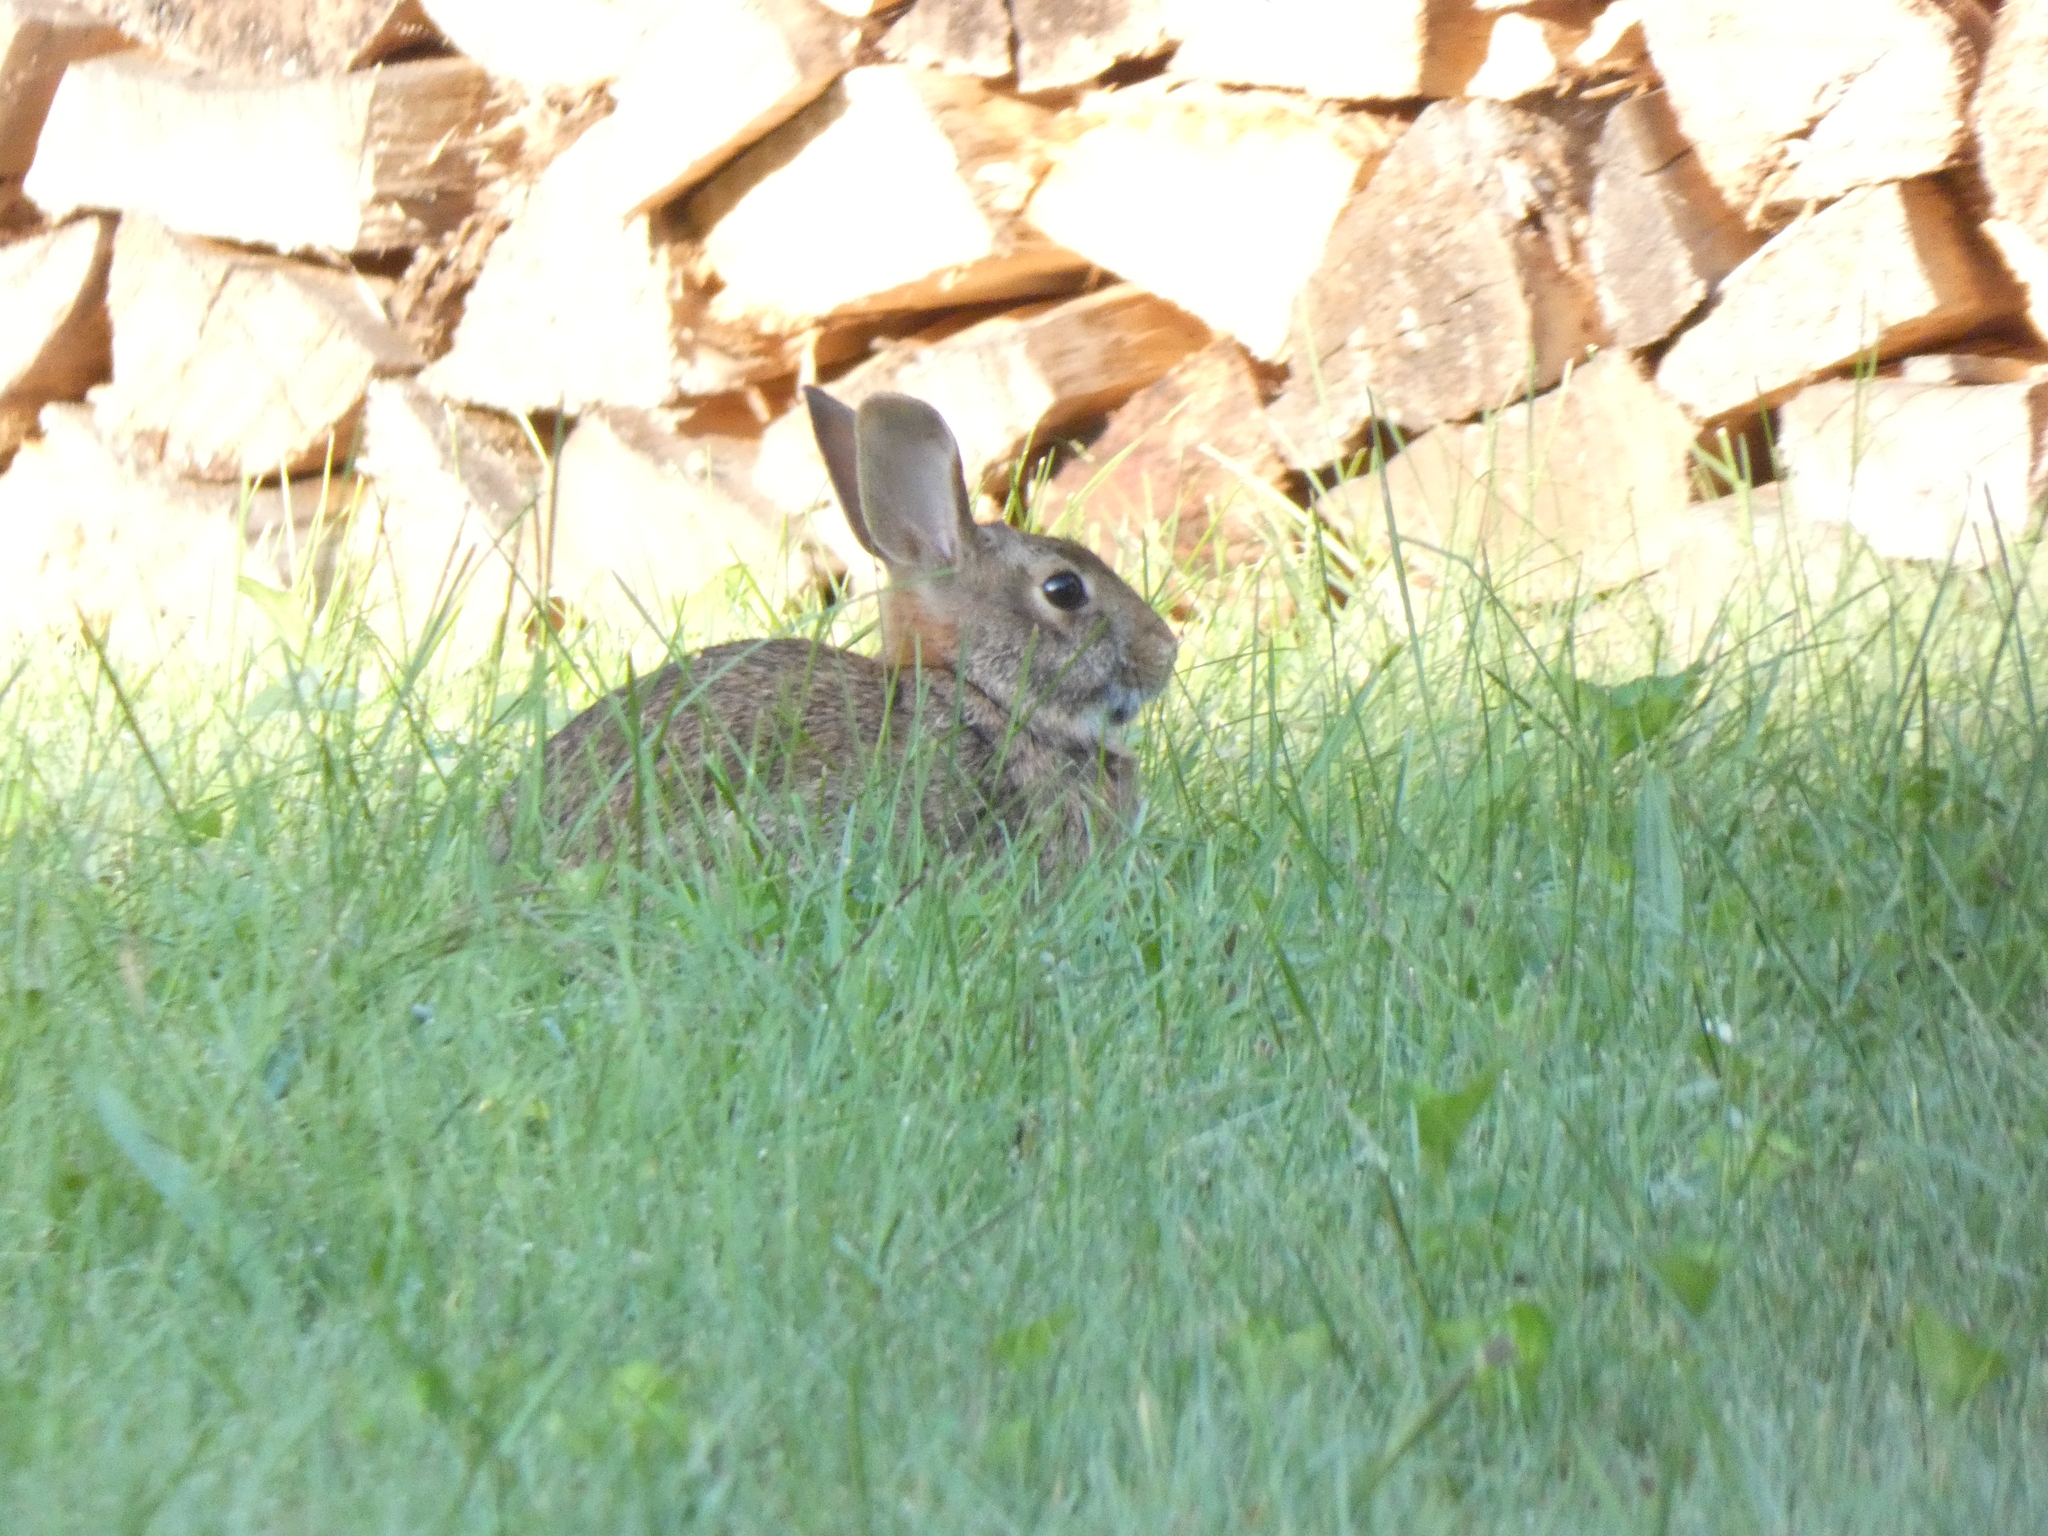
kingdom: Animalia
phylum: Chordata
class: Mammalia
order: Lagomorpha
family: Leporidae
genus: Sylvilagus
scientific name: Sylvilagus floridanus
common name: Eastern cottontail
